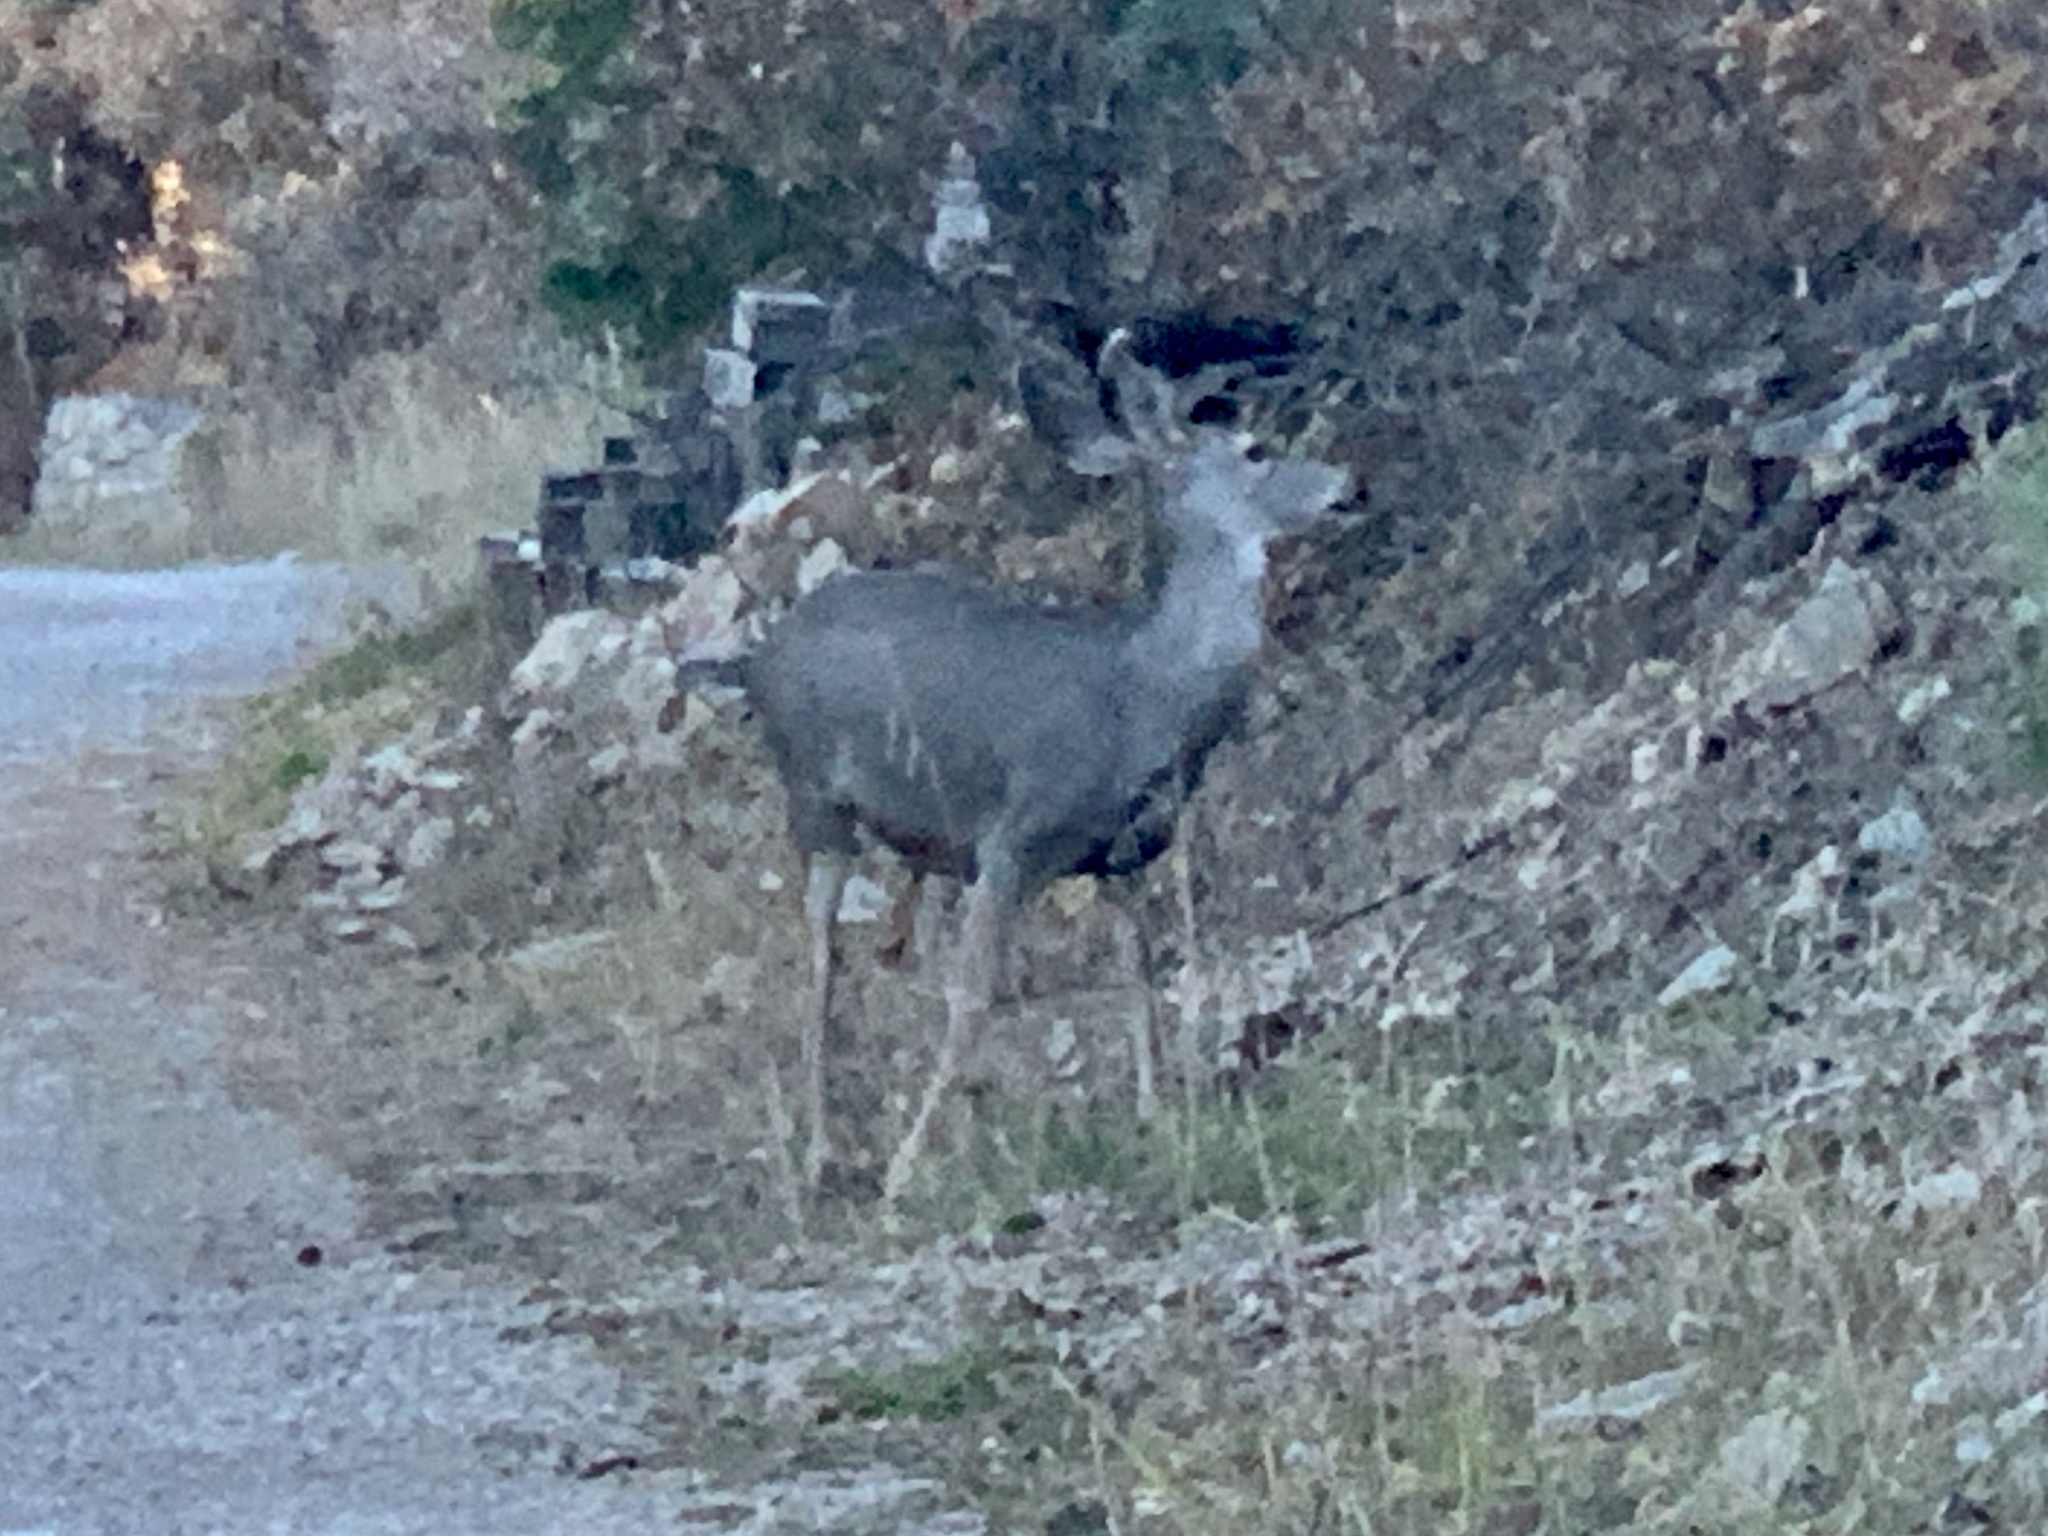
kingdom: Animalia
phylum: Chordata
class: Mammalia
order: Artiodactyla
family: Cervidae
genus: Odocoileus
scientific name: Odocoileus hemionus
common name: Mule deer
